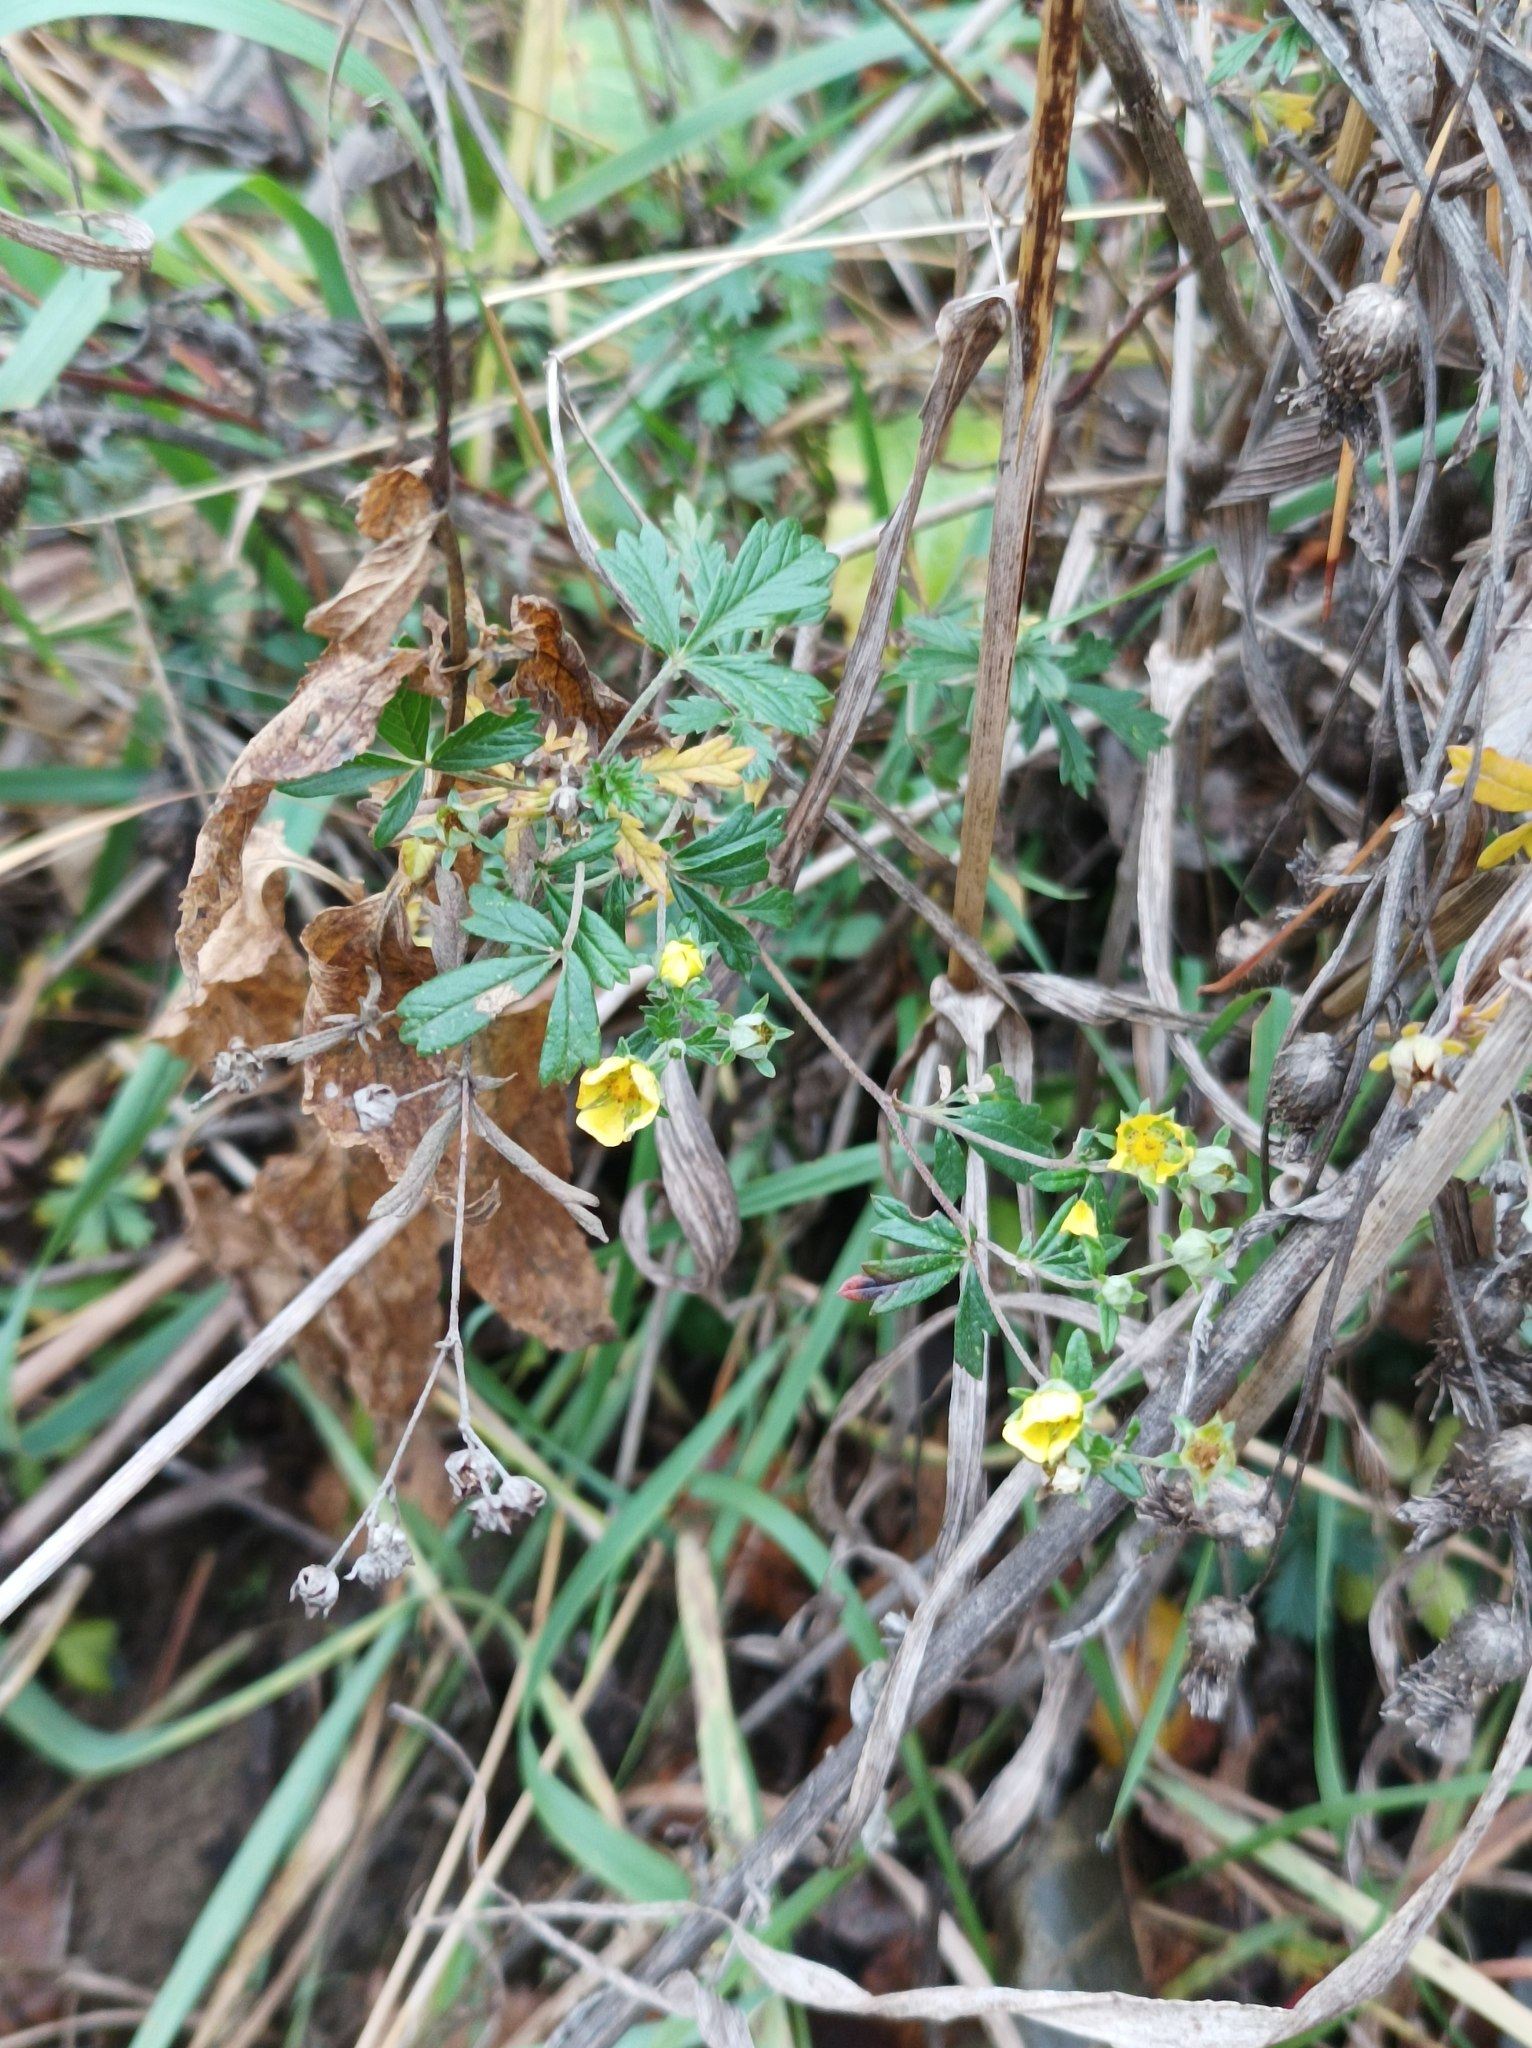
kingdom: Plantae
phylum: Tracheophyta
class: Magnoliopsida
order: Rosales
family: Rosaceae
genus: Potentilla
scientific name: Potentilla argentea
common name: Hoary cinquefoil
